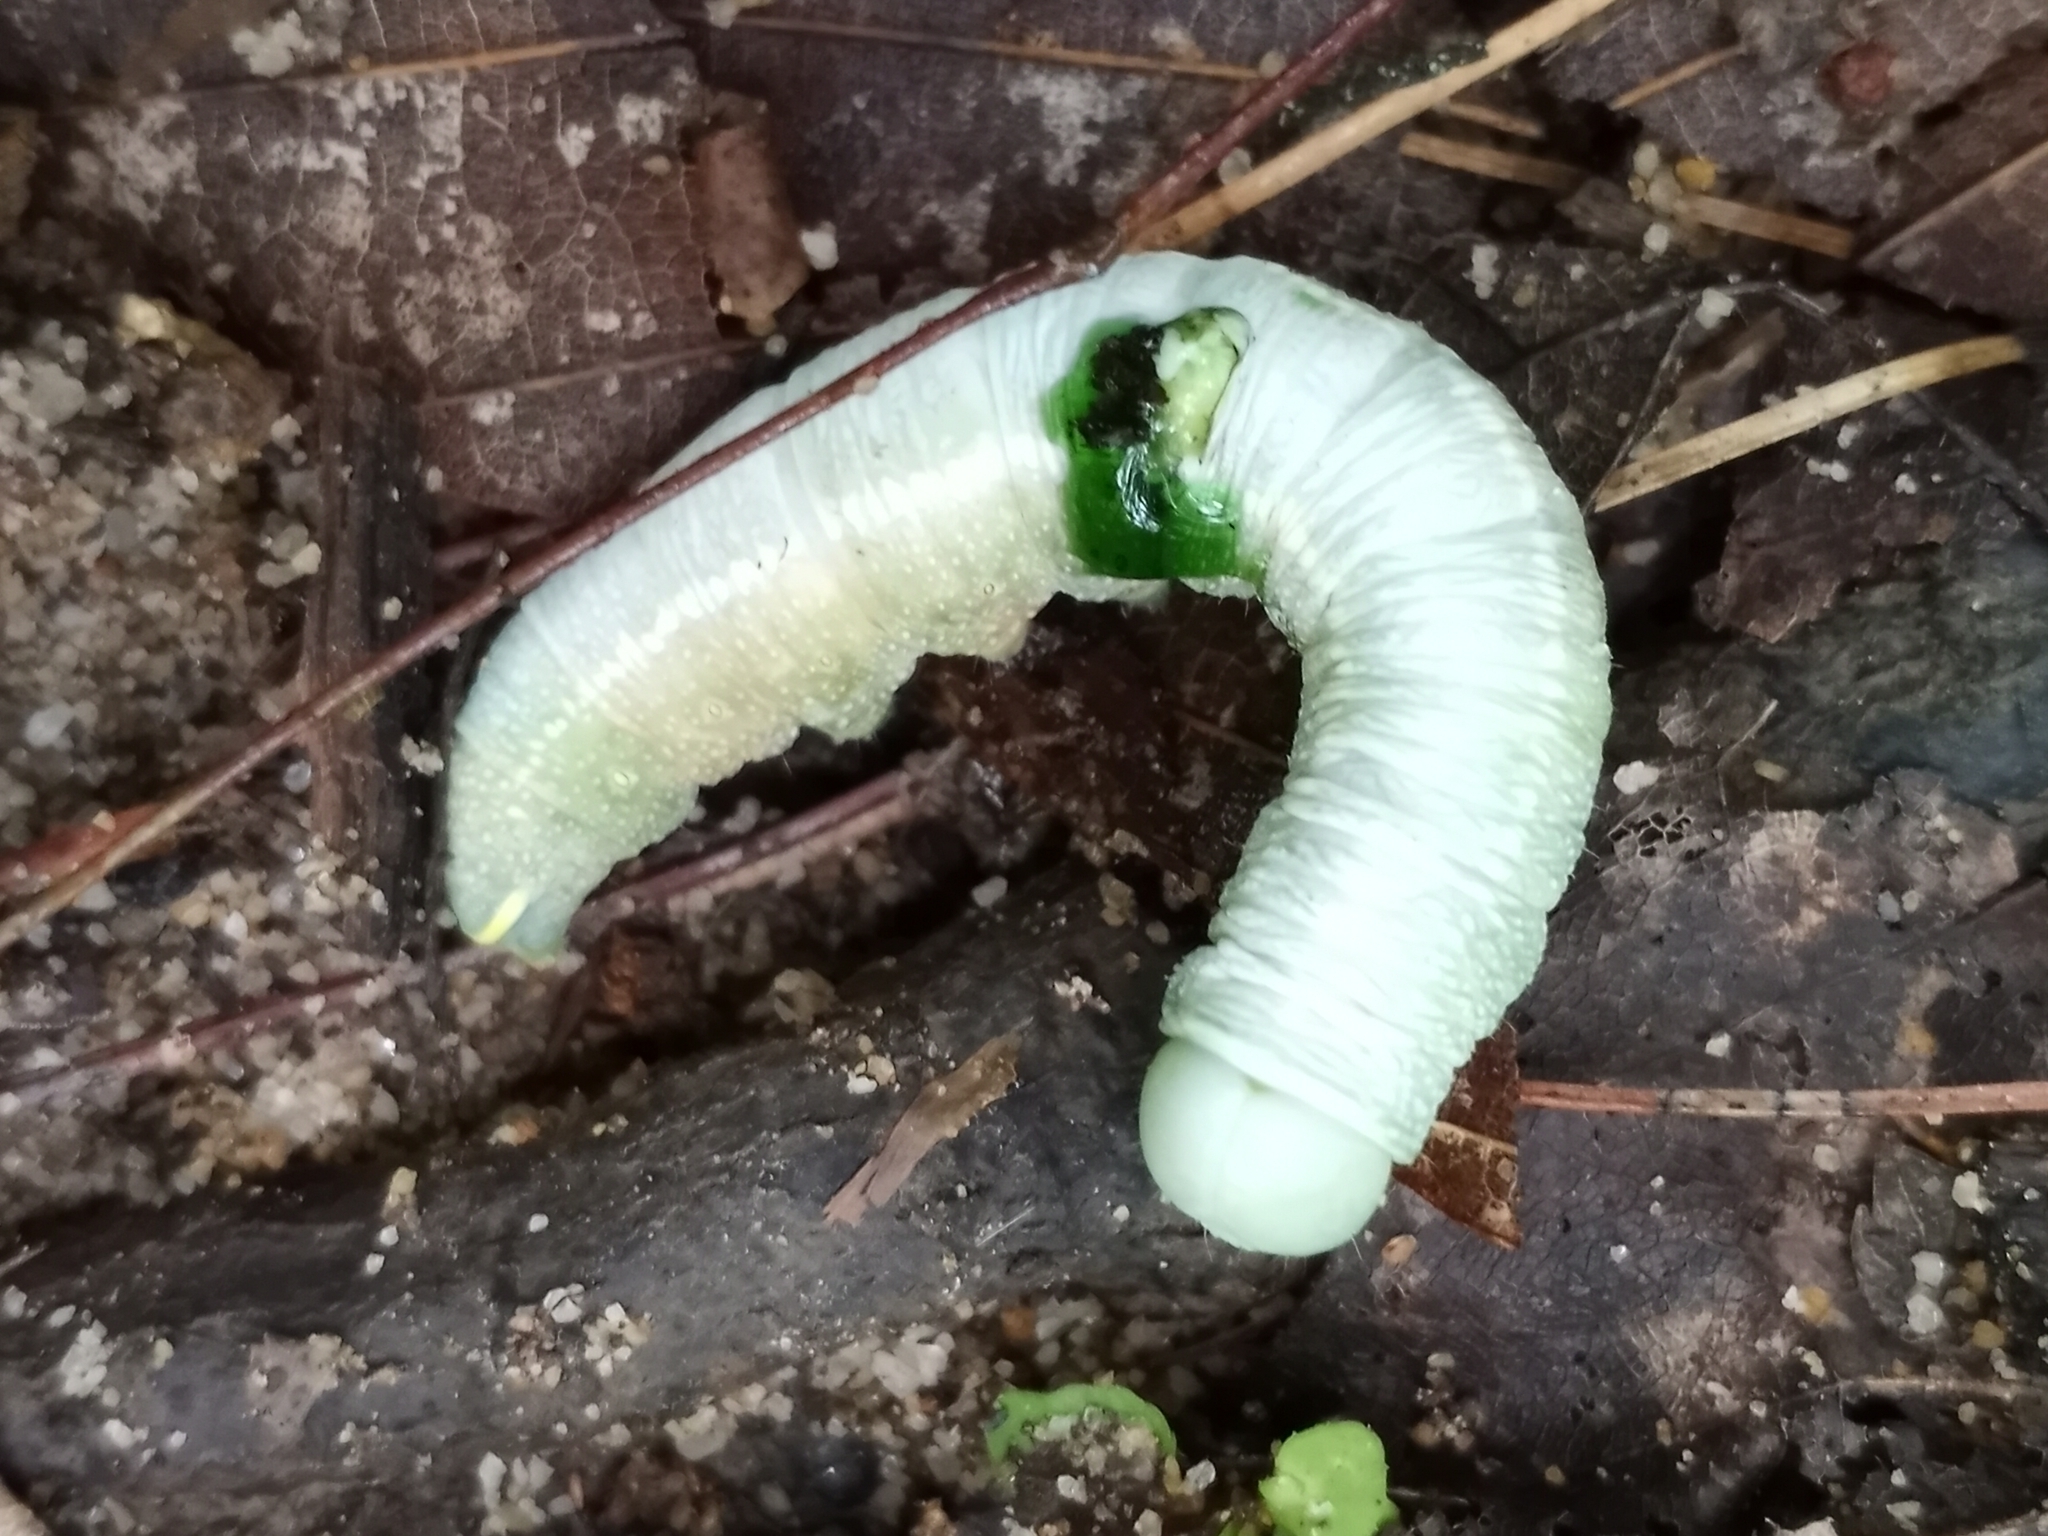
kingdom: Animalia
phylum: Arthropoda
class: Insecta
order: Lepidoptera
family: Notodontidae
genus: Nadata
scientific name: Nadata gibbosa
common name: White-dotted prominent
